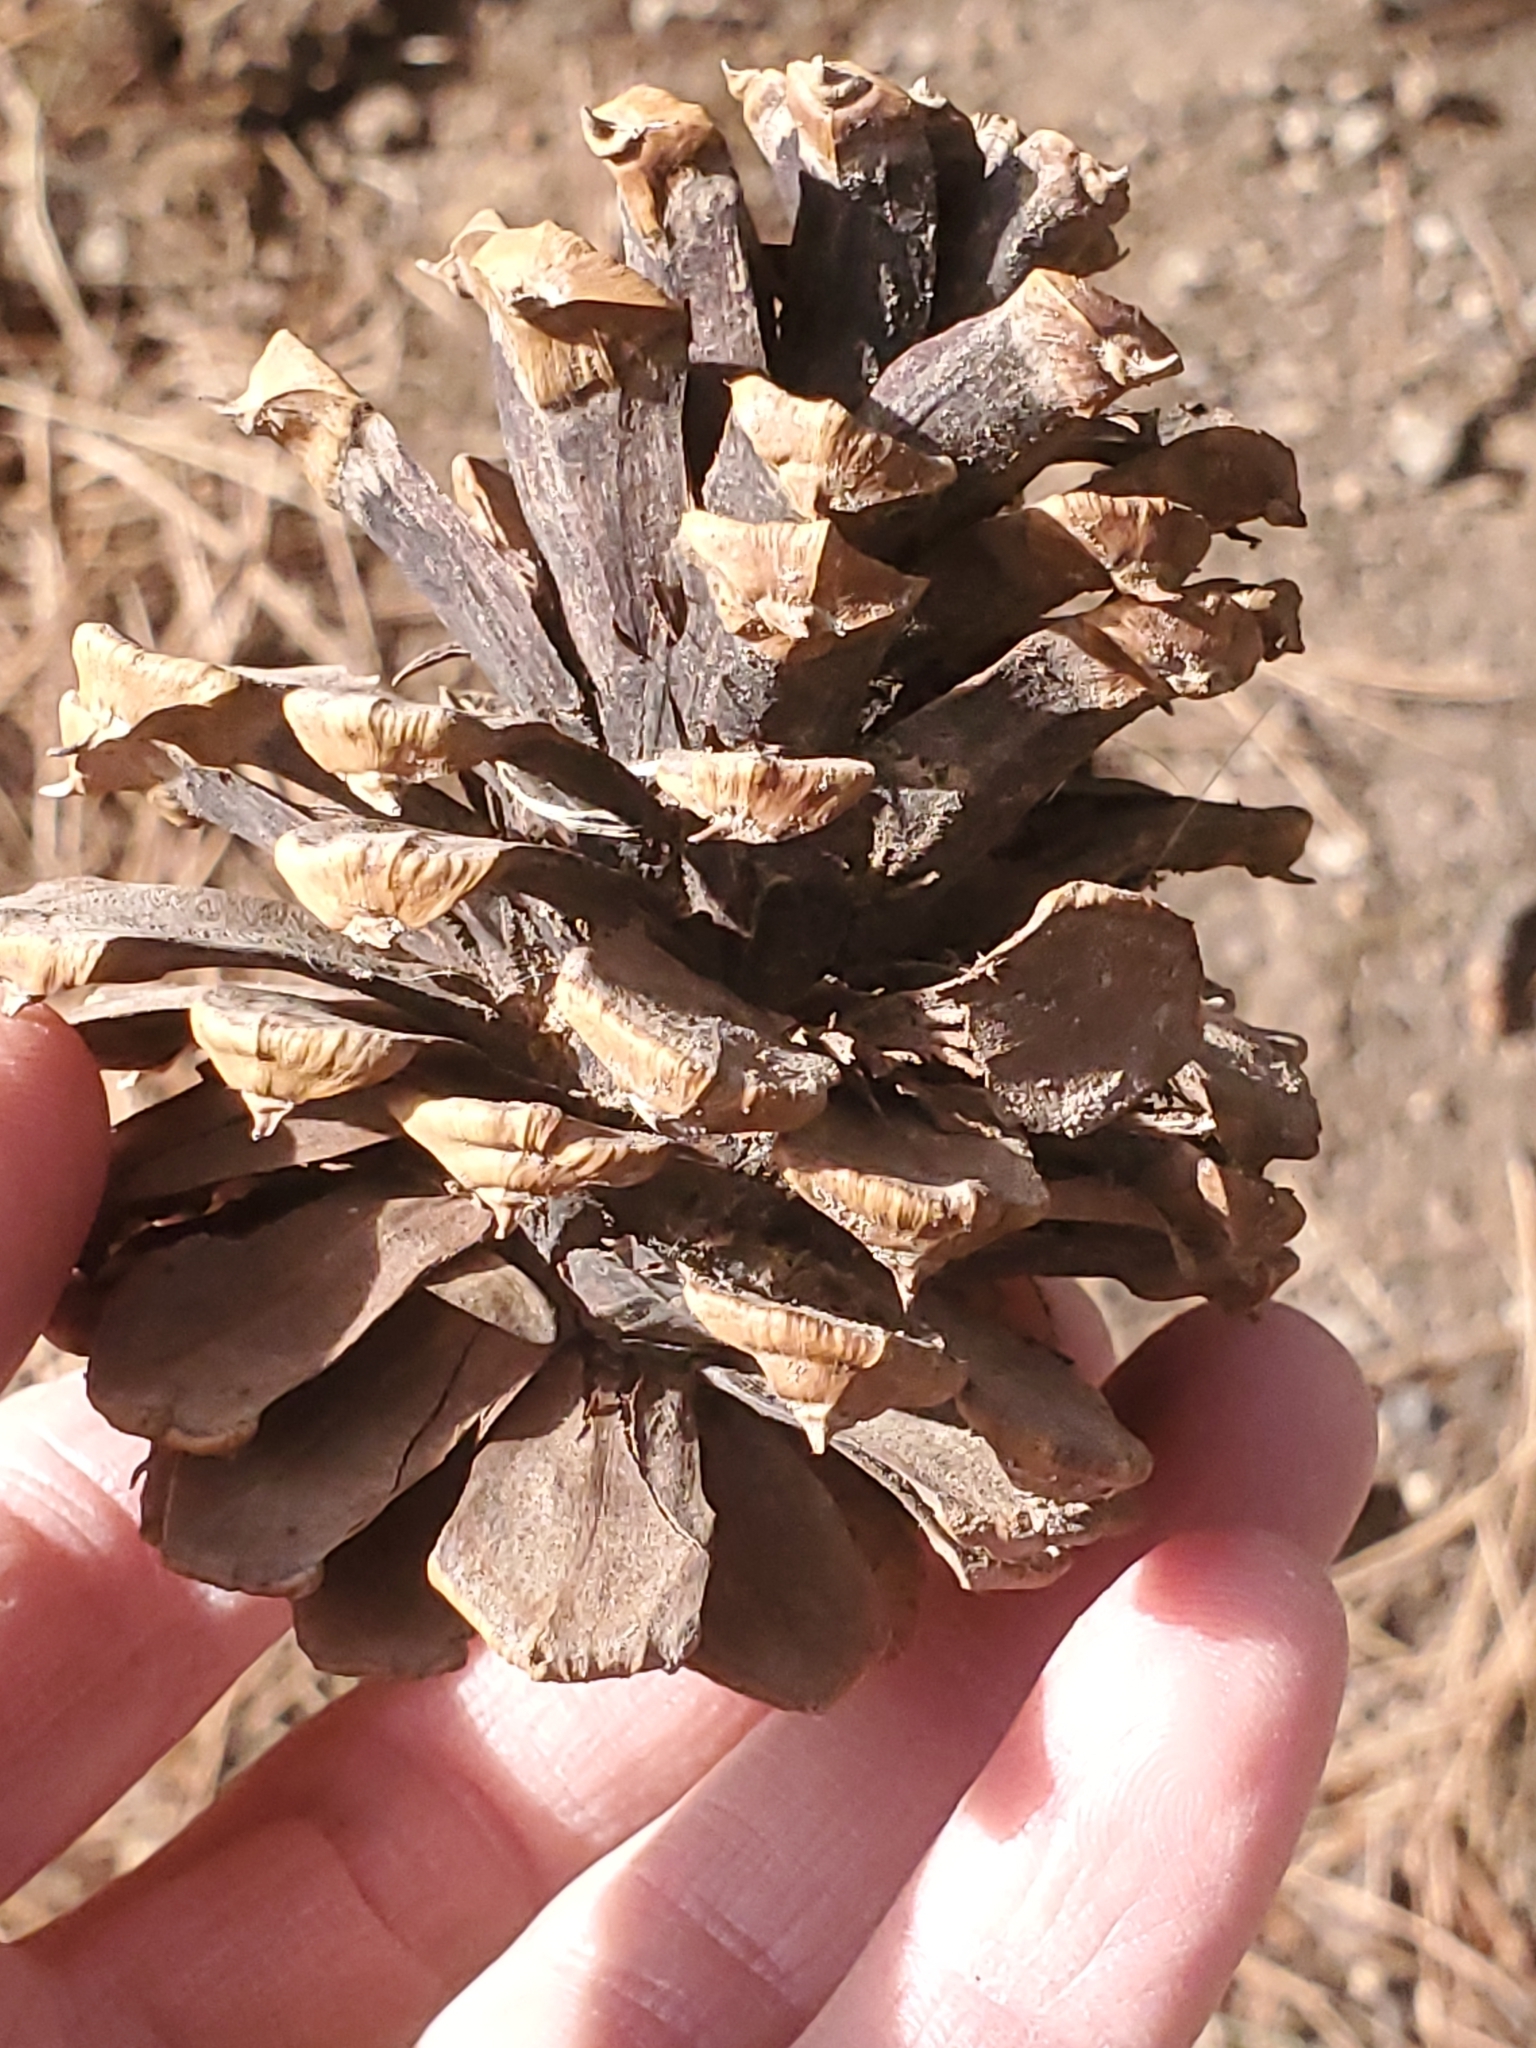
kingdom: Plantae
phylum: Tracheophyta
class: Pinopsida
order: Pinales
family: Pinaceae
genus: Pinus
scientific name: Pinus ponderosa
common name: Western yellow-pine
